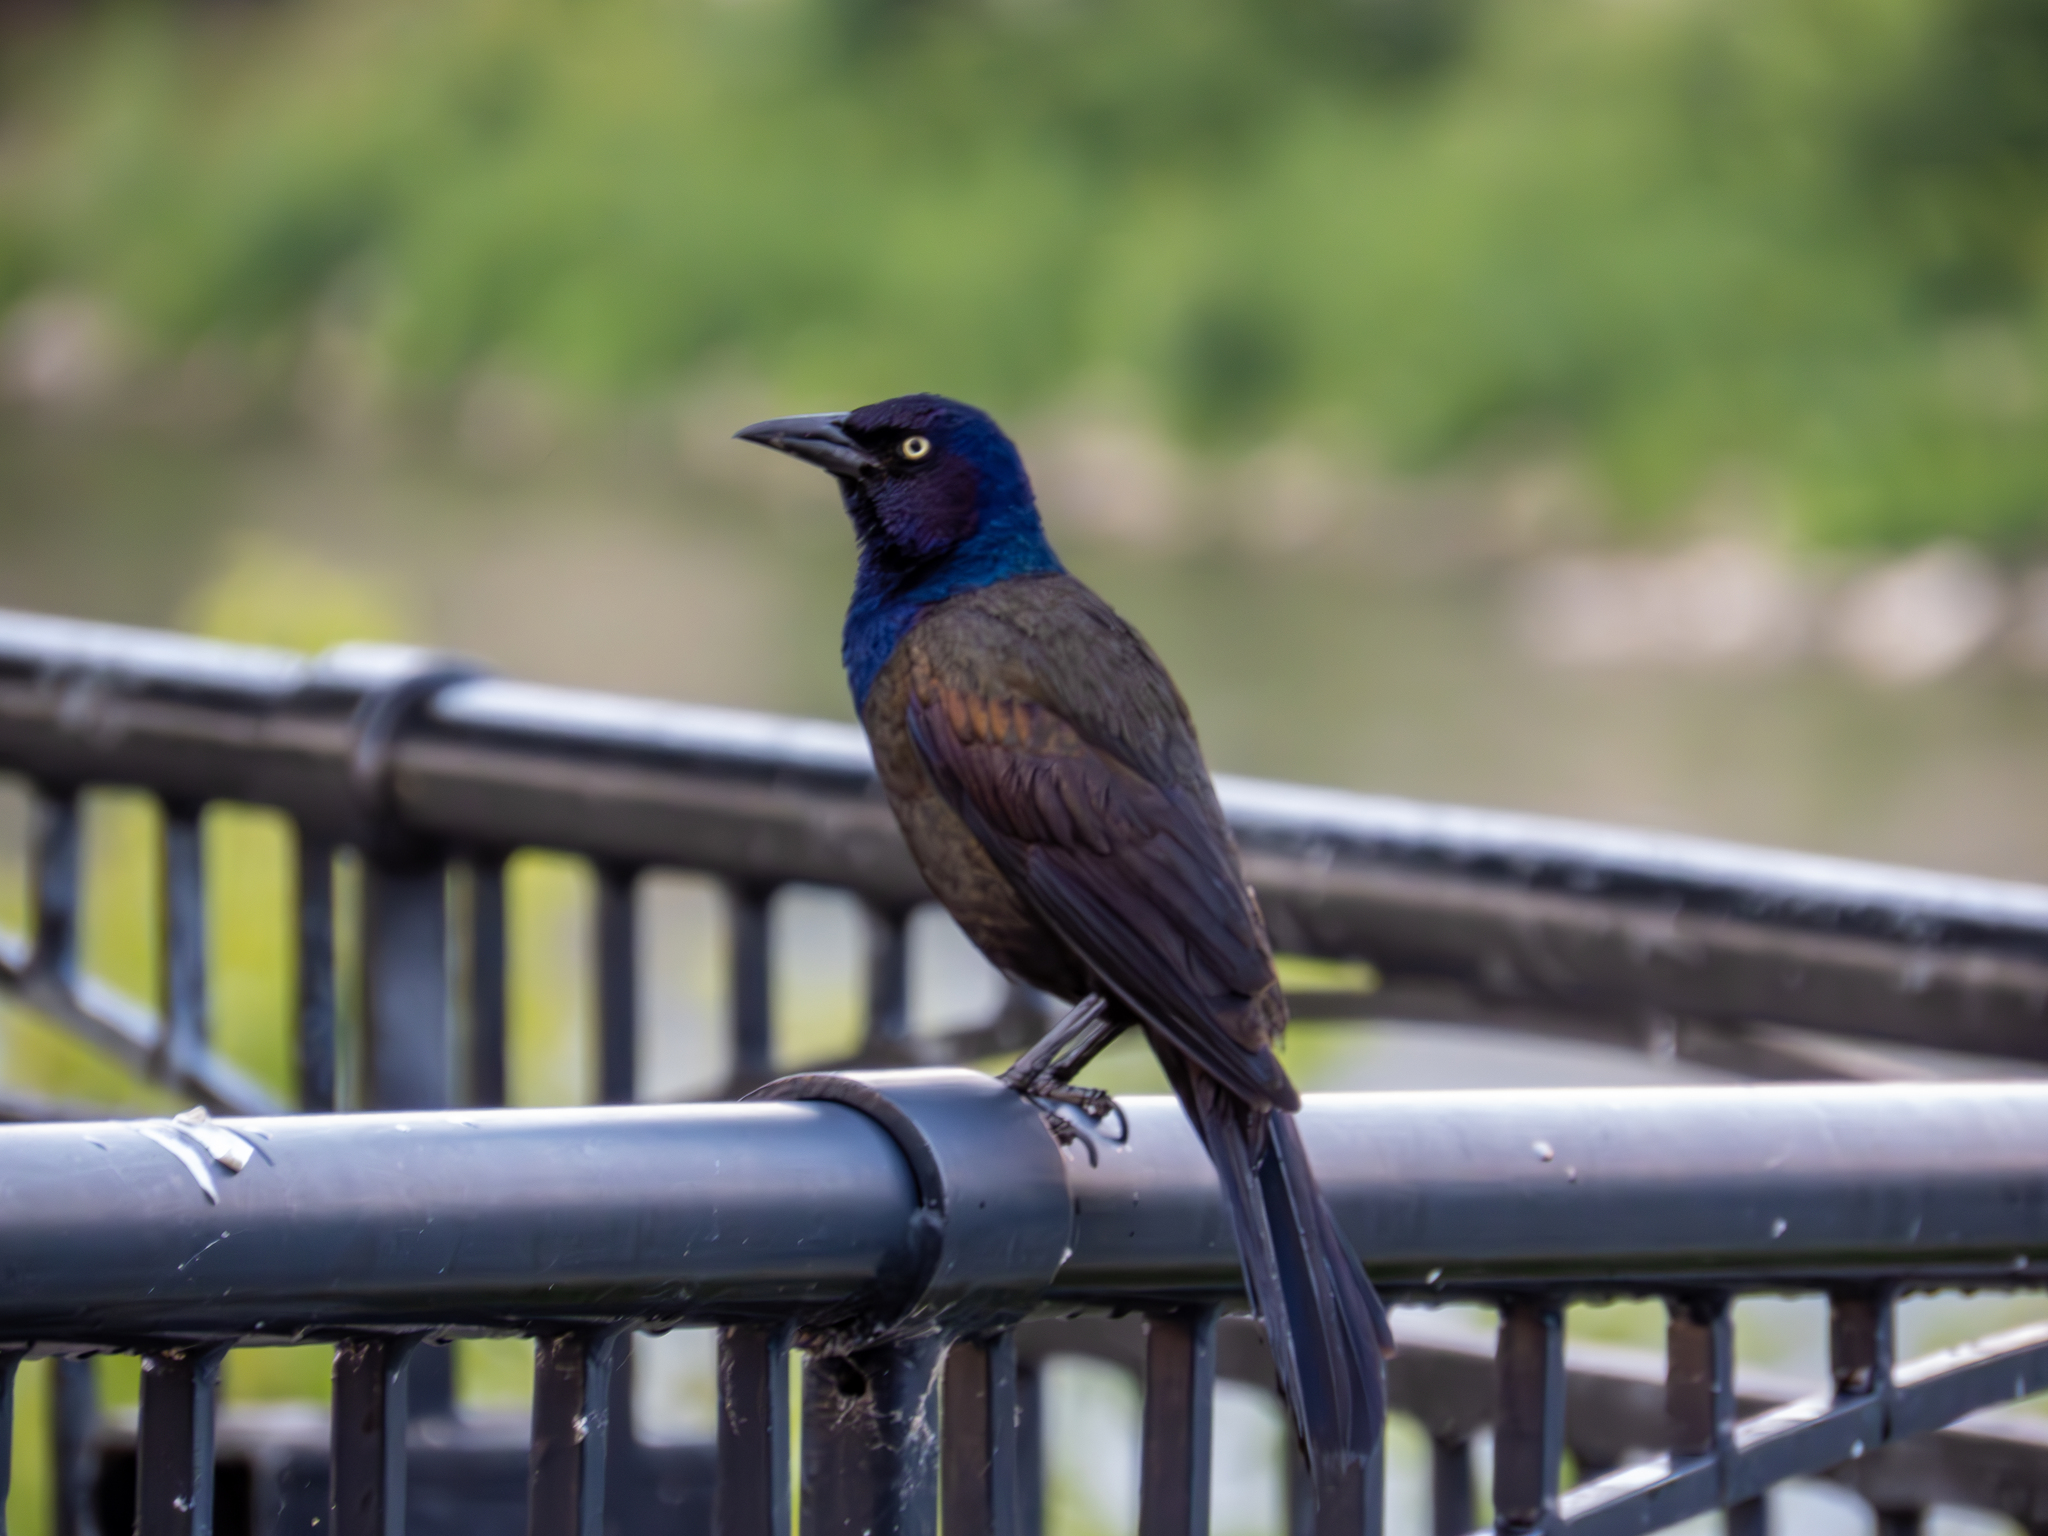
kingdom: Animalia
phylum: Chordata
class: Aves
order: Passeriformes
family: Icteridae
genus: Quiscalus
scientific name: Quiscalus quiscula
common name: Common grackle
